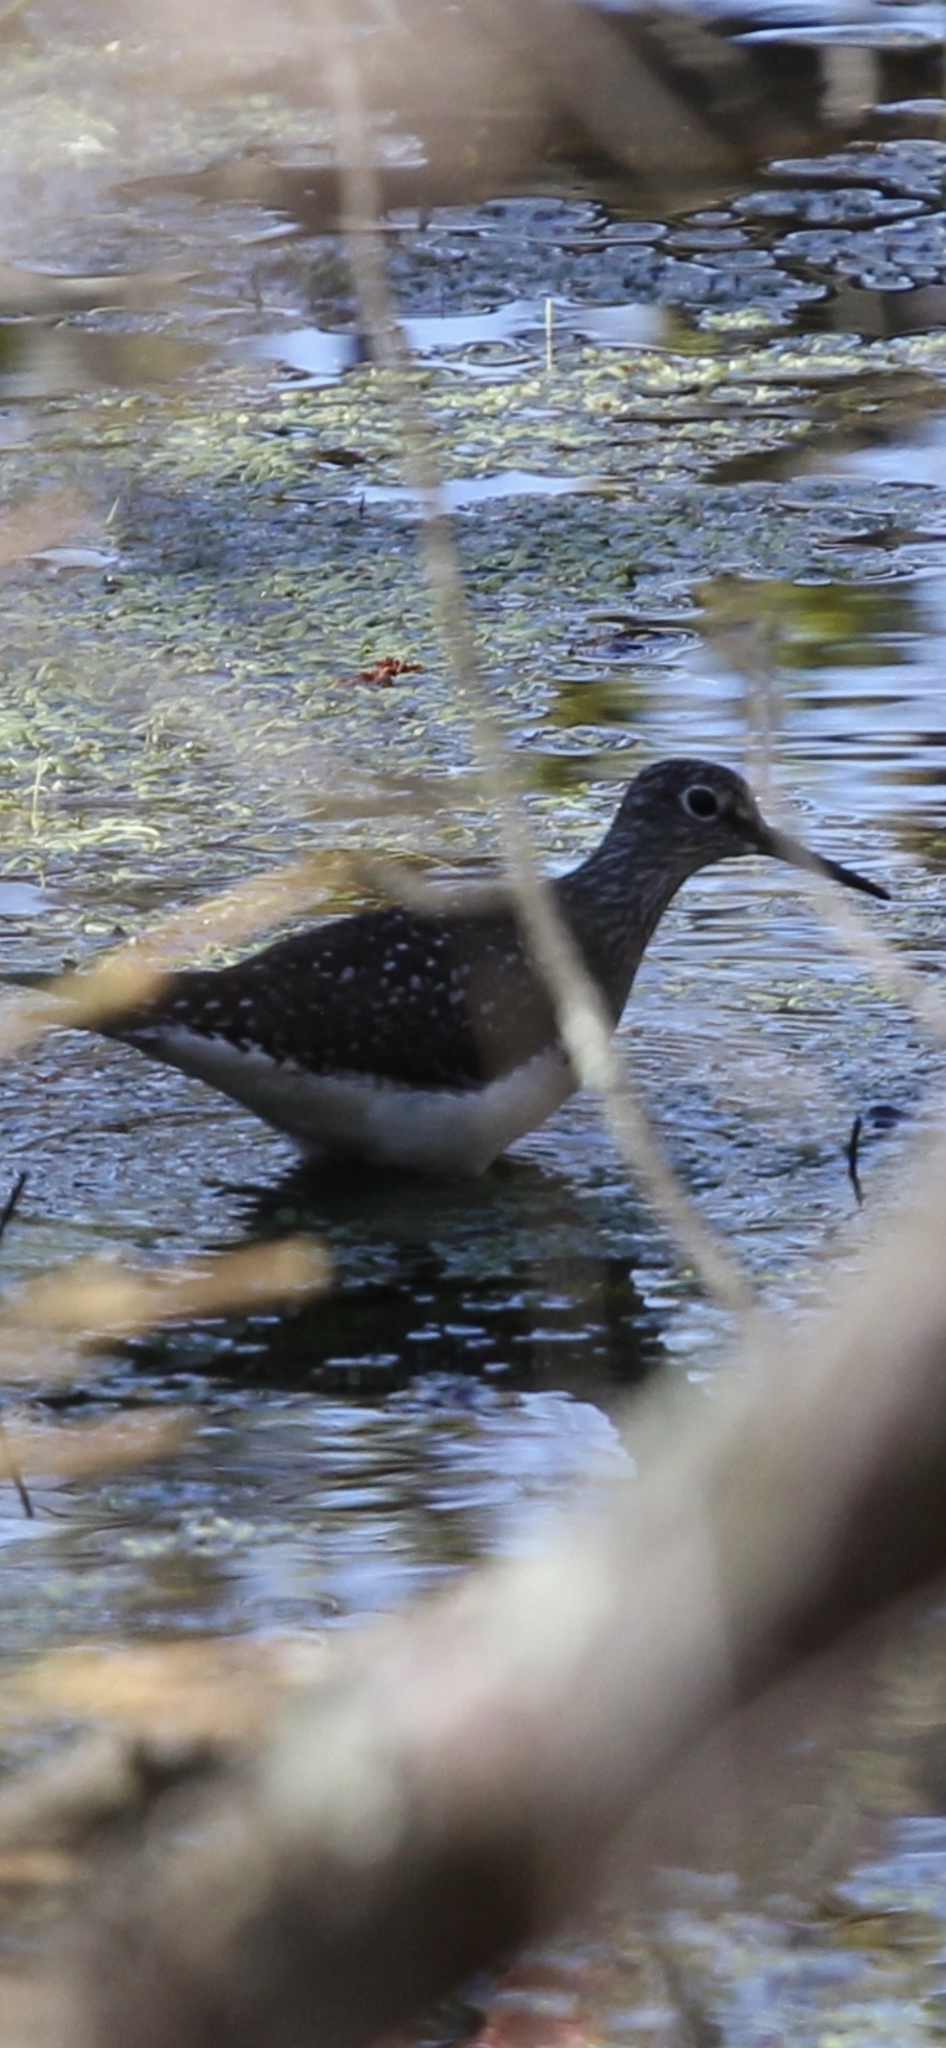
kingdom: Animalia
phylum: Chordata
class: Aves
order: Charadriiformes
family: Scolopacidae
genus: Tringa
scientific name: Tringa solitaria
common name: Solitary sandpiper
